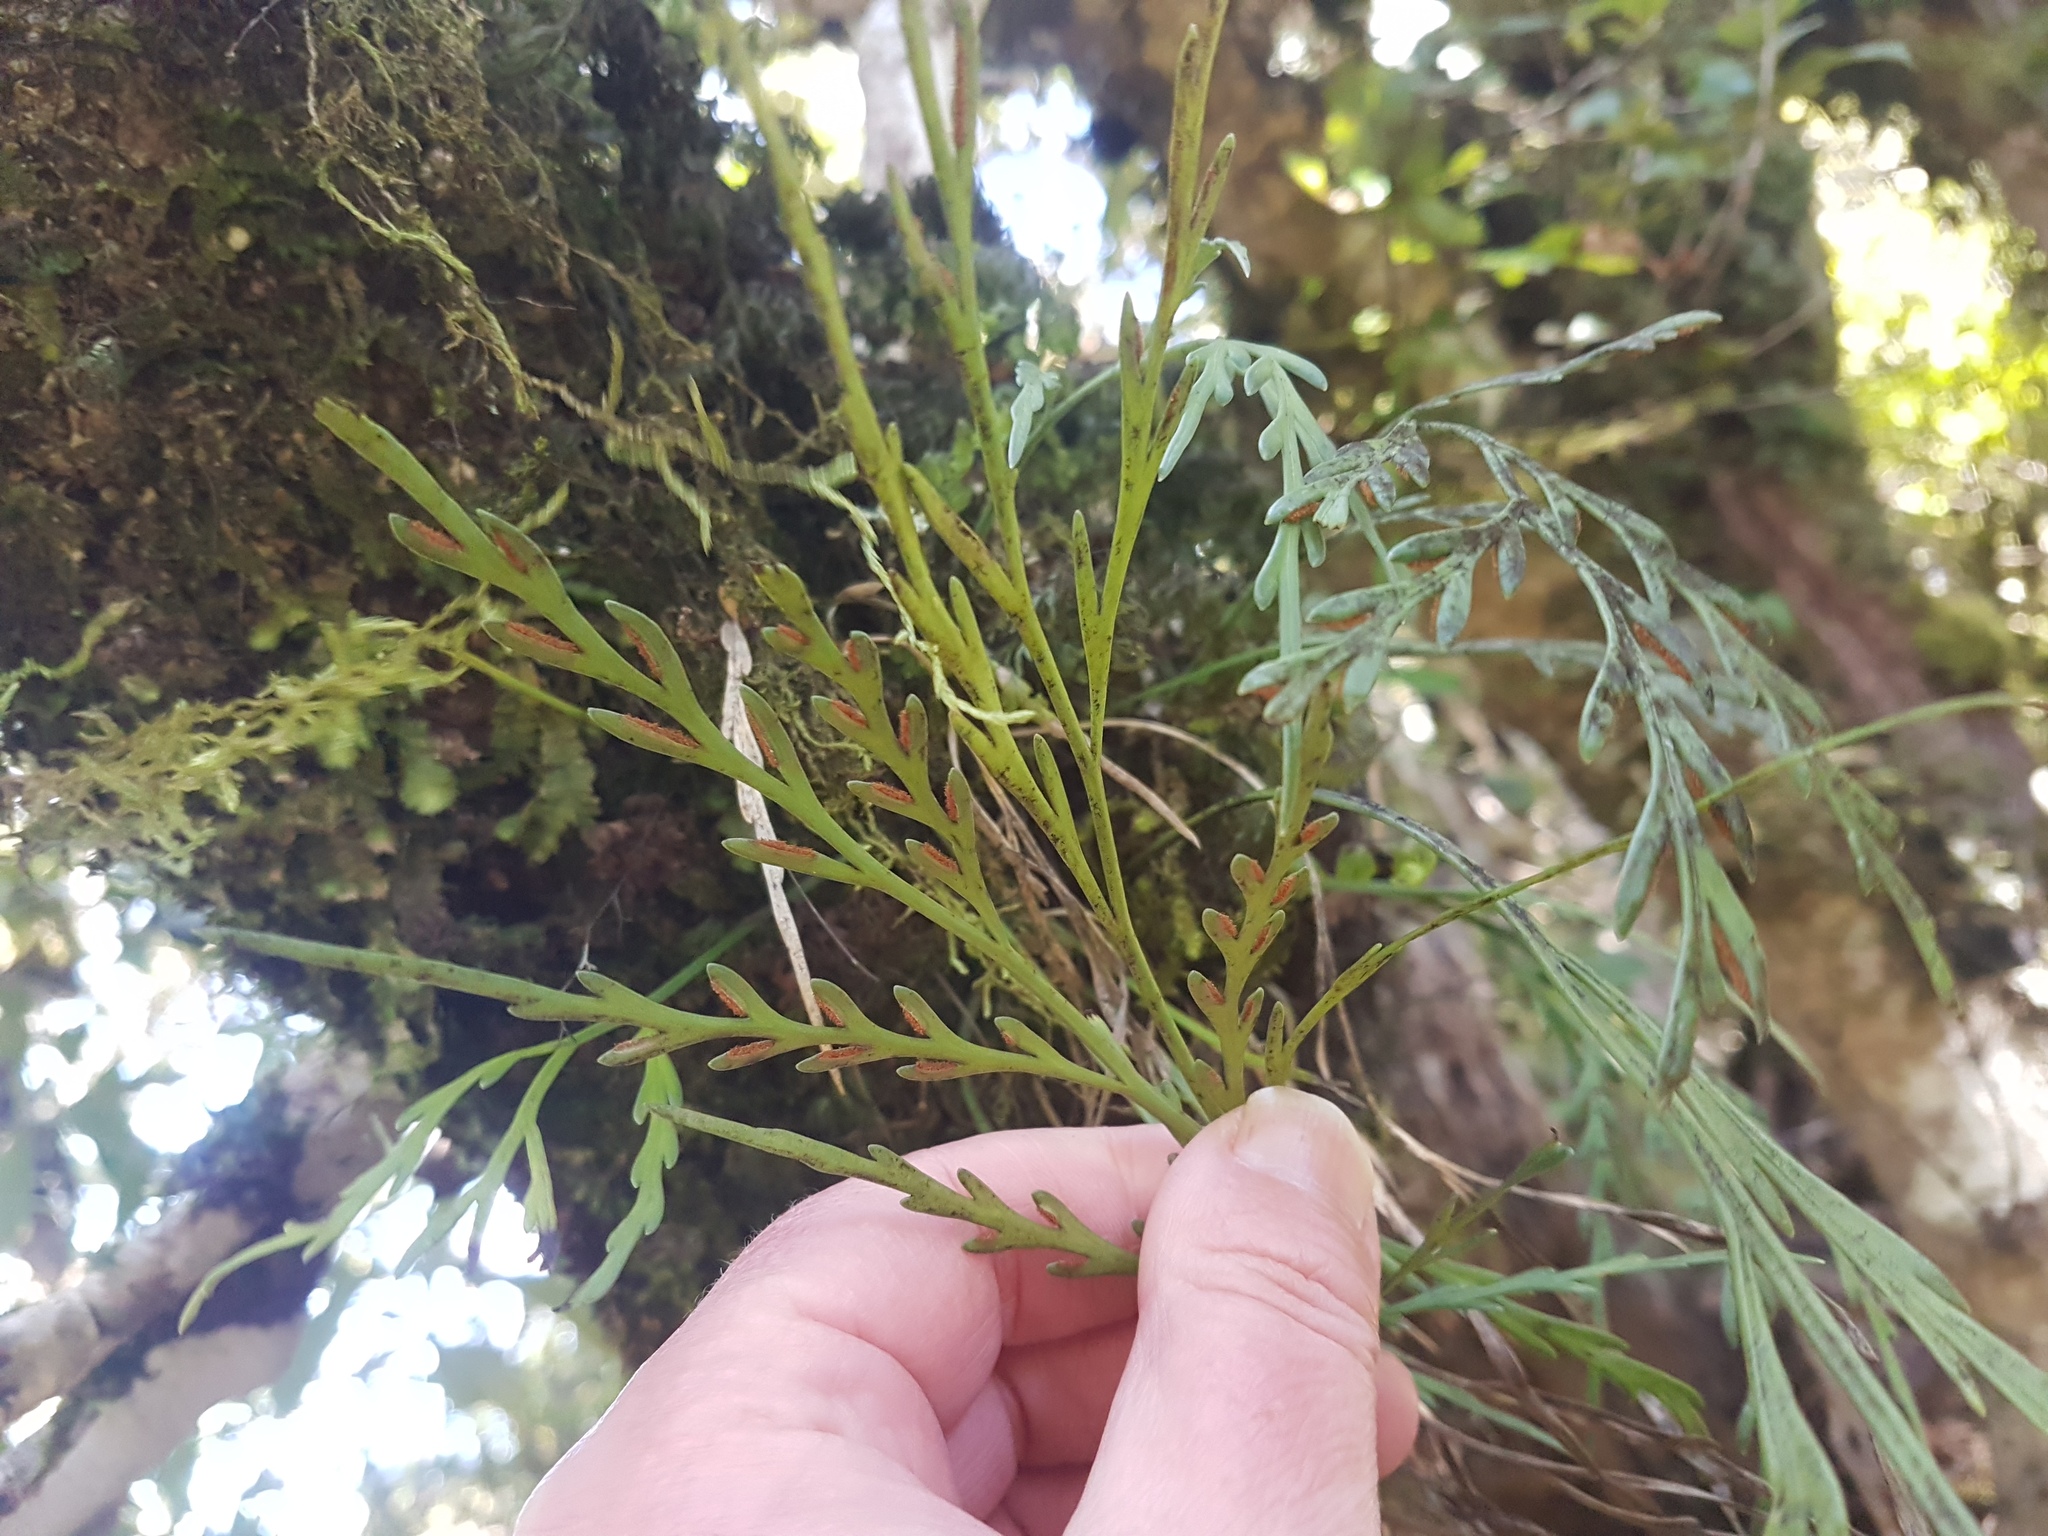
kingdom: Plantae
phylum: Tracheophyta
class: Polypodiopsida
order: Polypodiales
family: Aspleniaceae
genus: Asplenium
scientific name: Asplenium flaccidum
